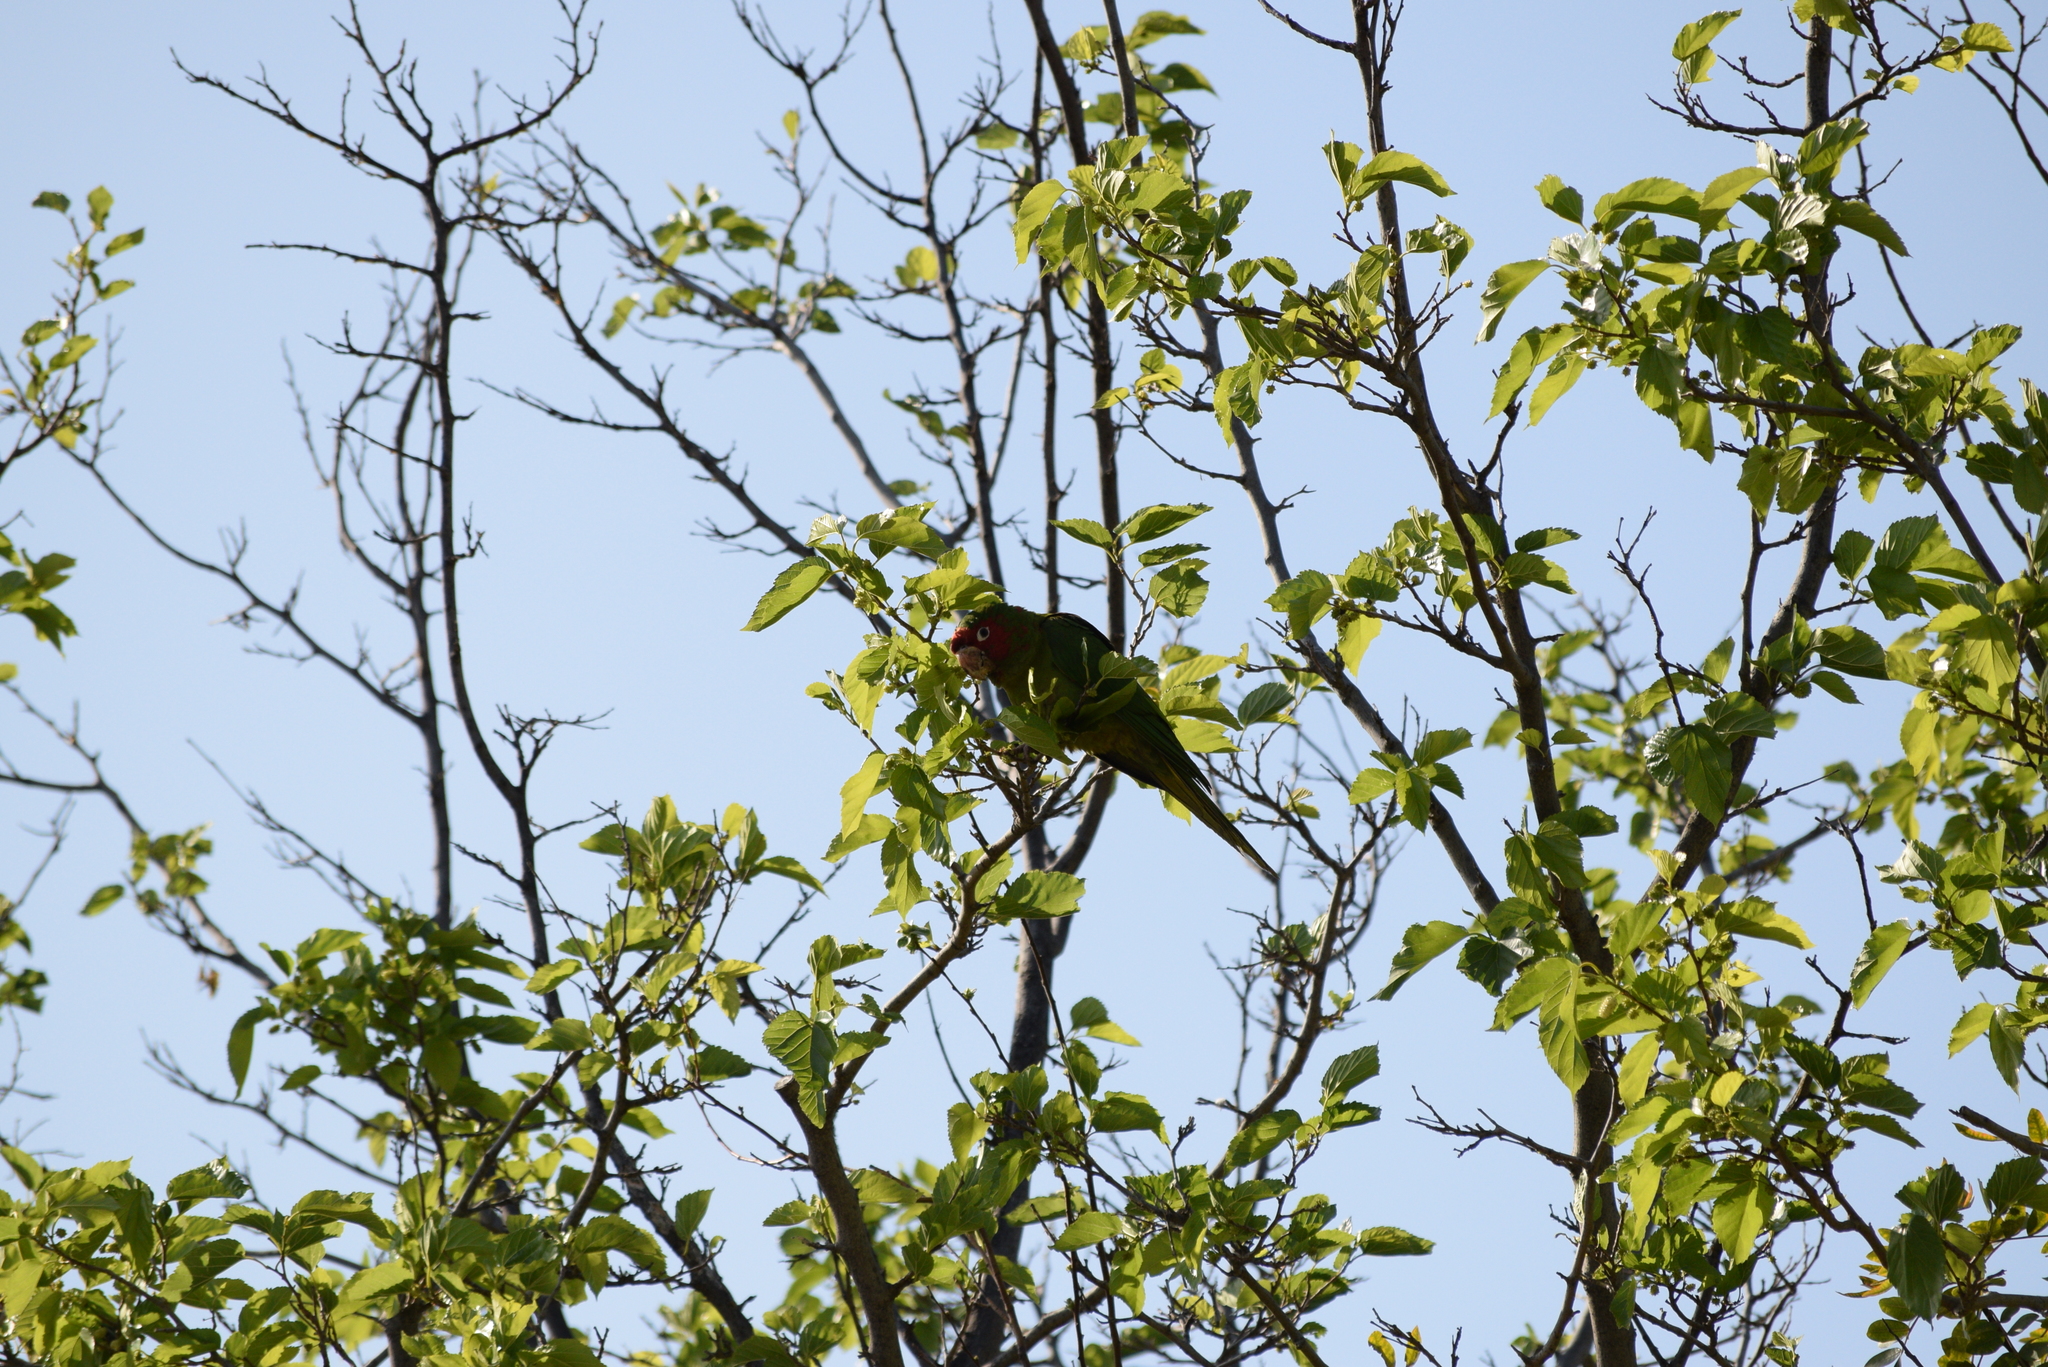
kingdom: Animalia
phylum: Chordata
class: Aves
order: Psittaciformes
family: Psittacidae
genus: Aratinga
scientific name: Aratinga mitrata
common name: Mitred parakeet
